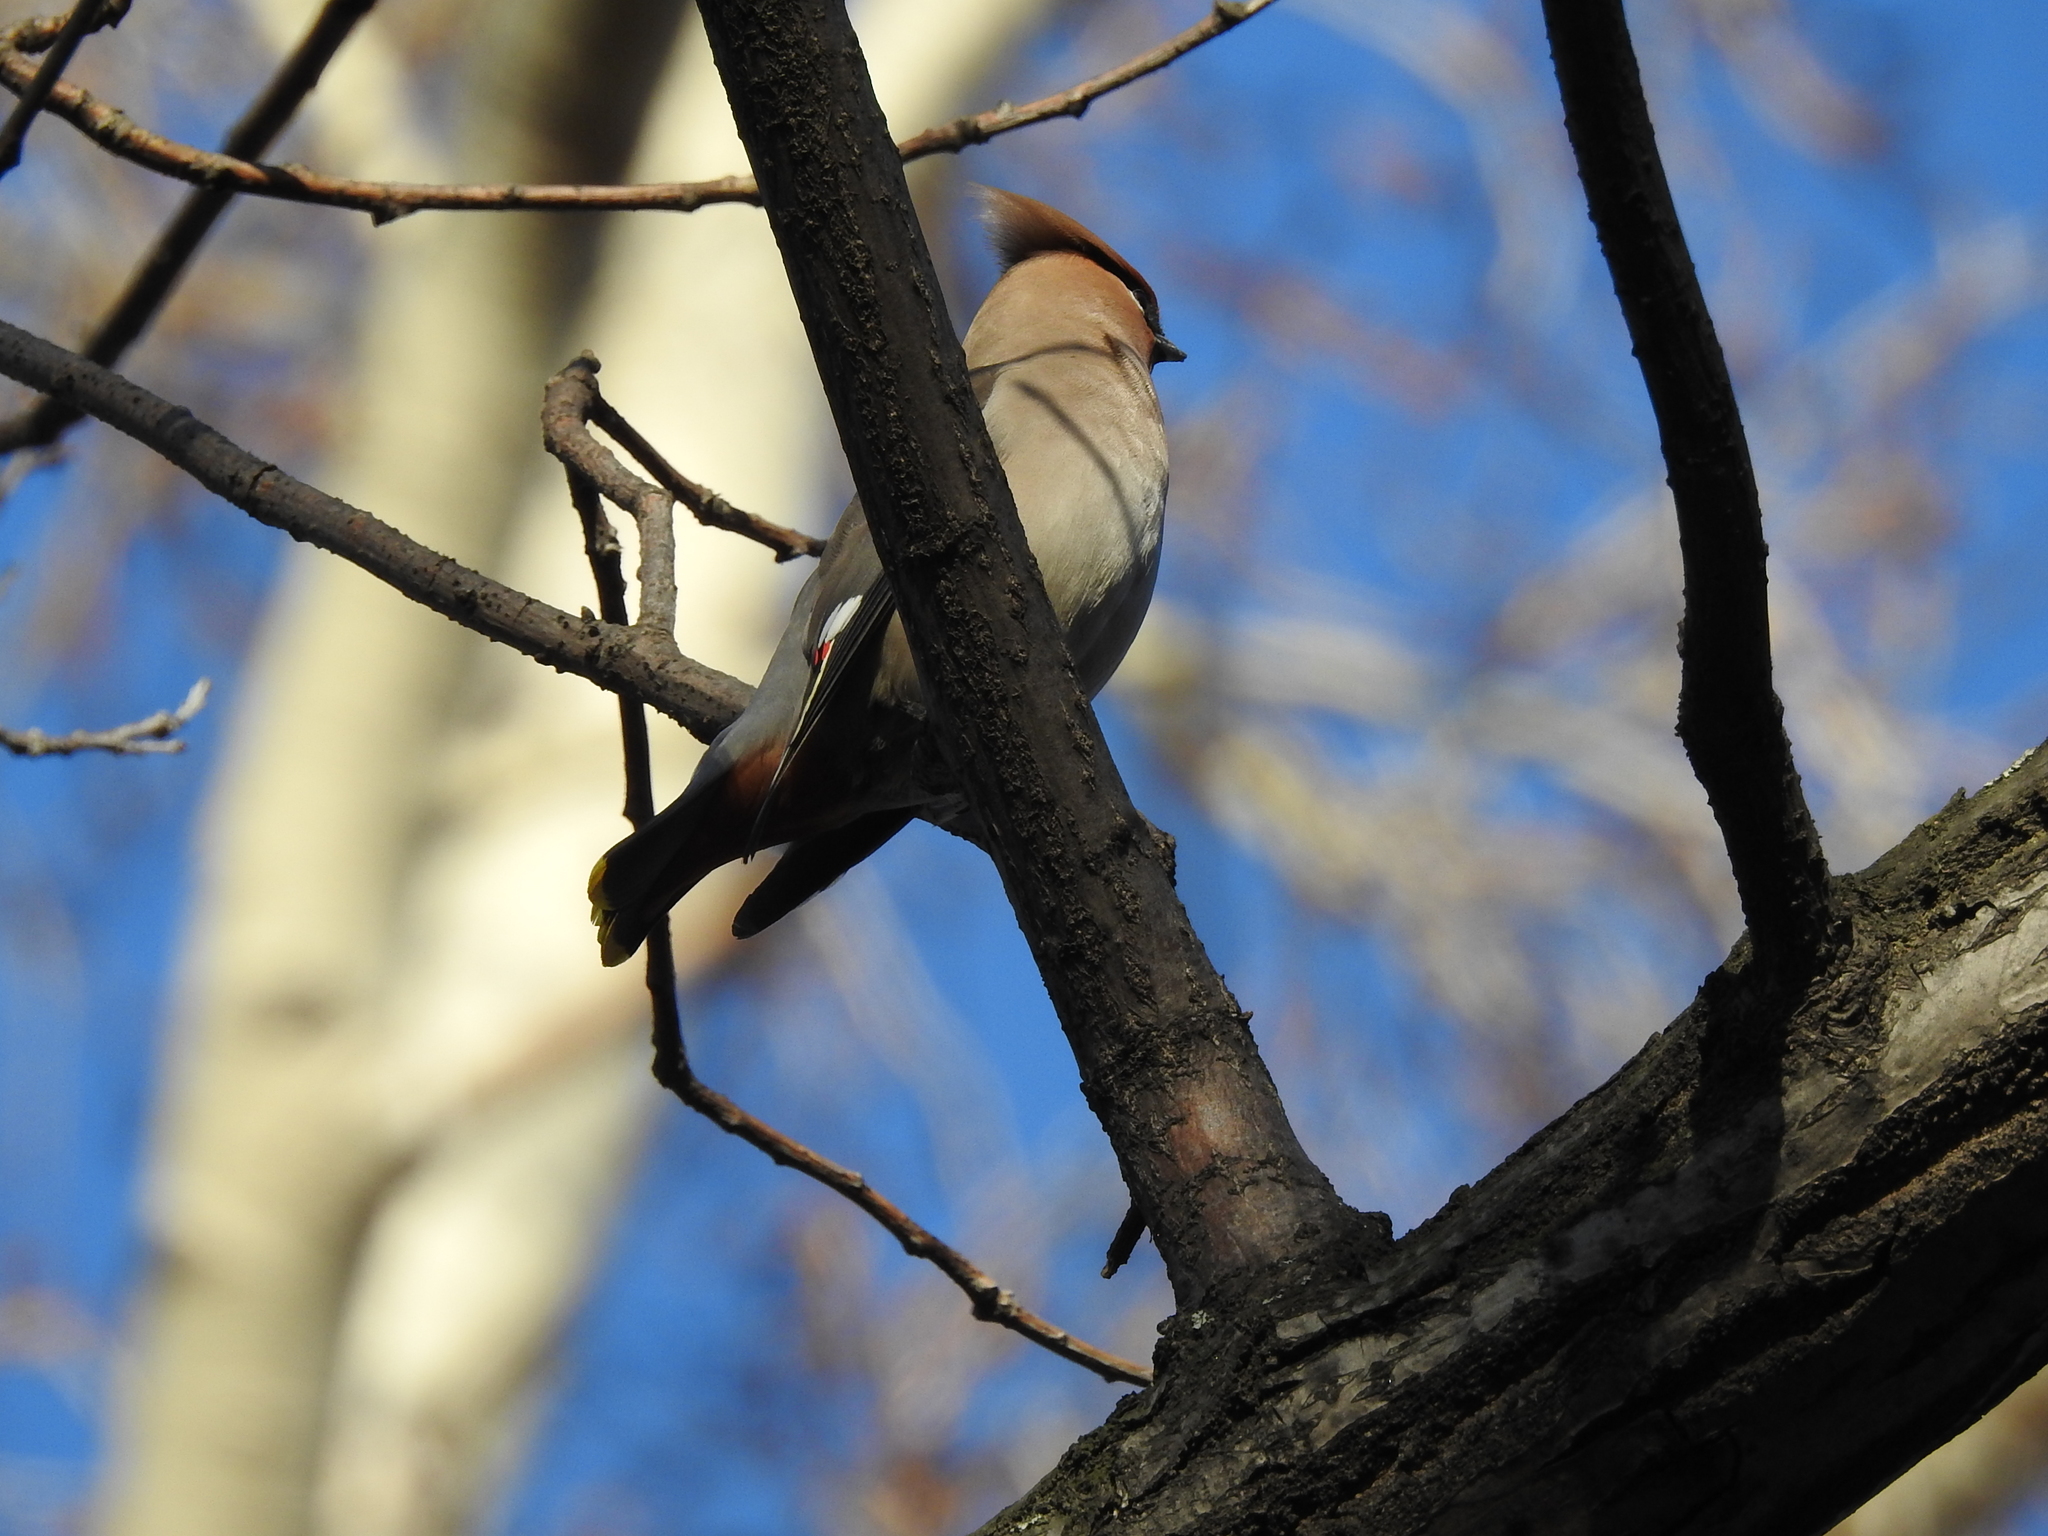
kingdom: Animalia
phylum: Chordata
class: Aves
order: Passeriformes
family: Bombycillidae
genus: Bombycilla
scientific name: Bombycilla garrulus
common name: Bohemian waxwing
